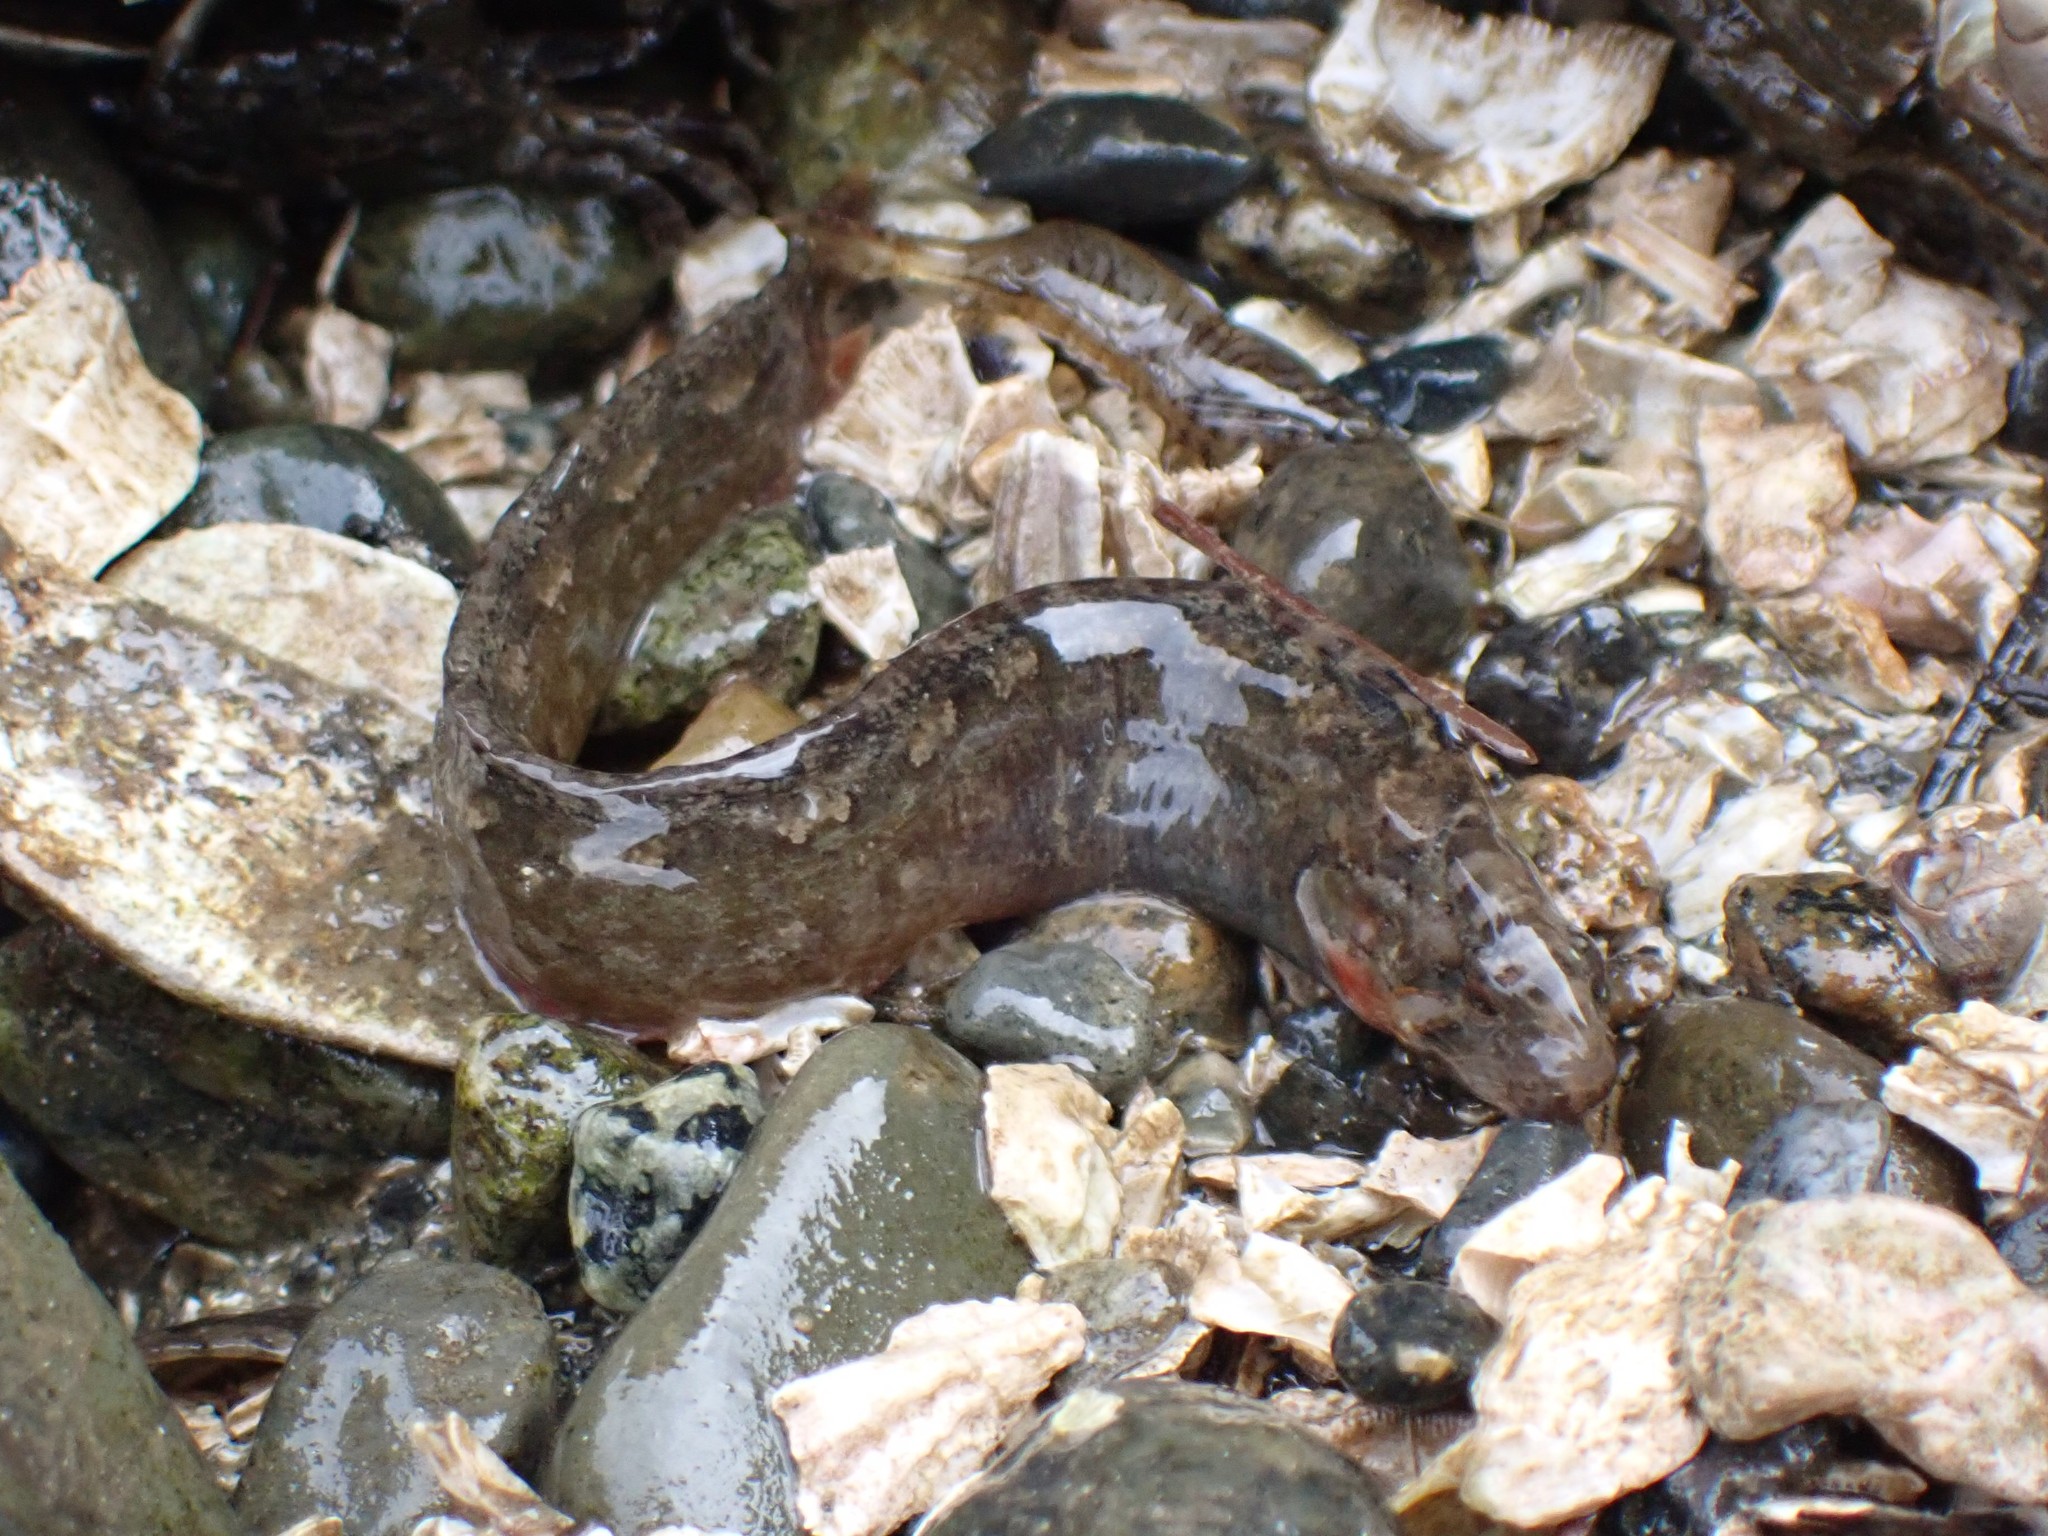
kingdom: Animalia
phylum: Chordata
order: Perciformes
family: Stichaeidae
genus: Anoplarchus
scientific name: Anoplarchus purpurescens
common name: High cockscomb
